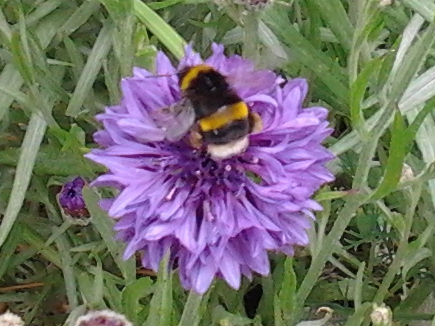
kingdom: Animalia
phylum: Arthropoda
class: Insecta
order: Hymenoptera
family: Apidae
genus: Bombus
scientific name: Bombus terrestris
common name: Buff-tailed bumblebee
